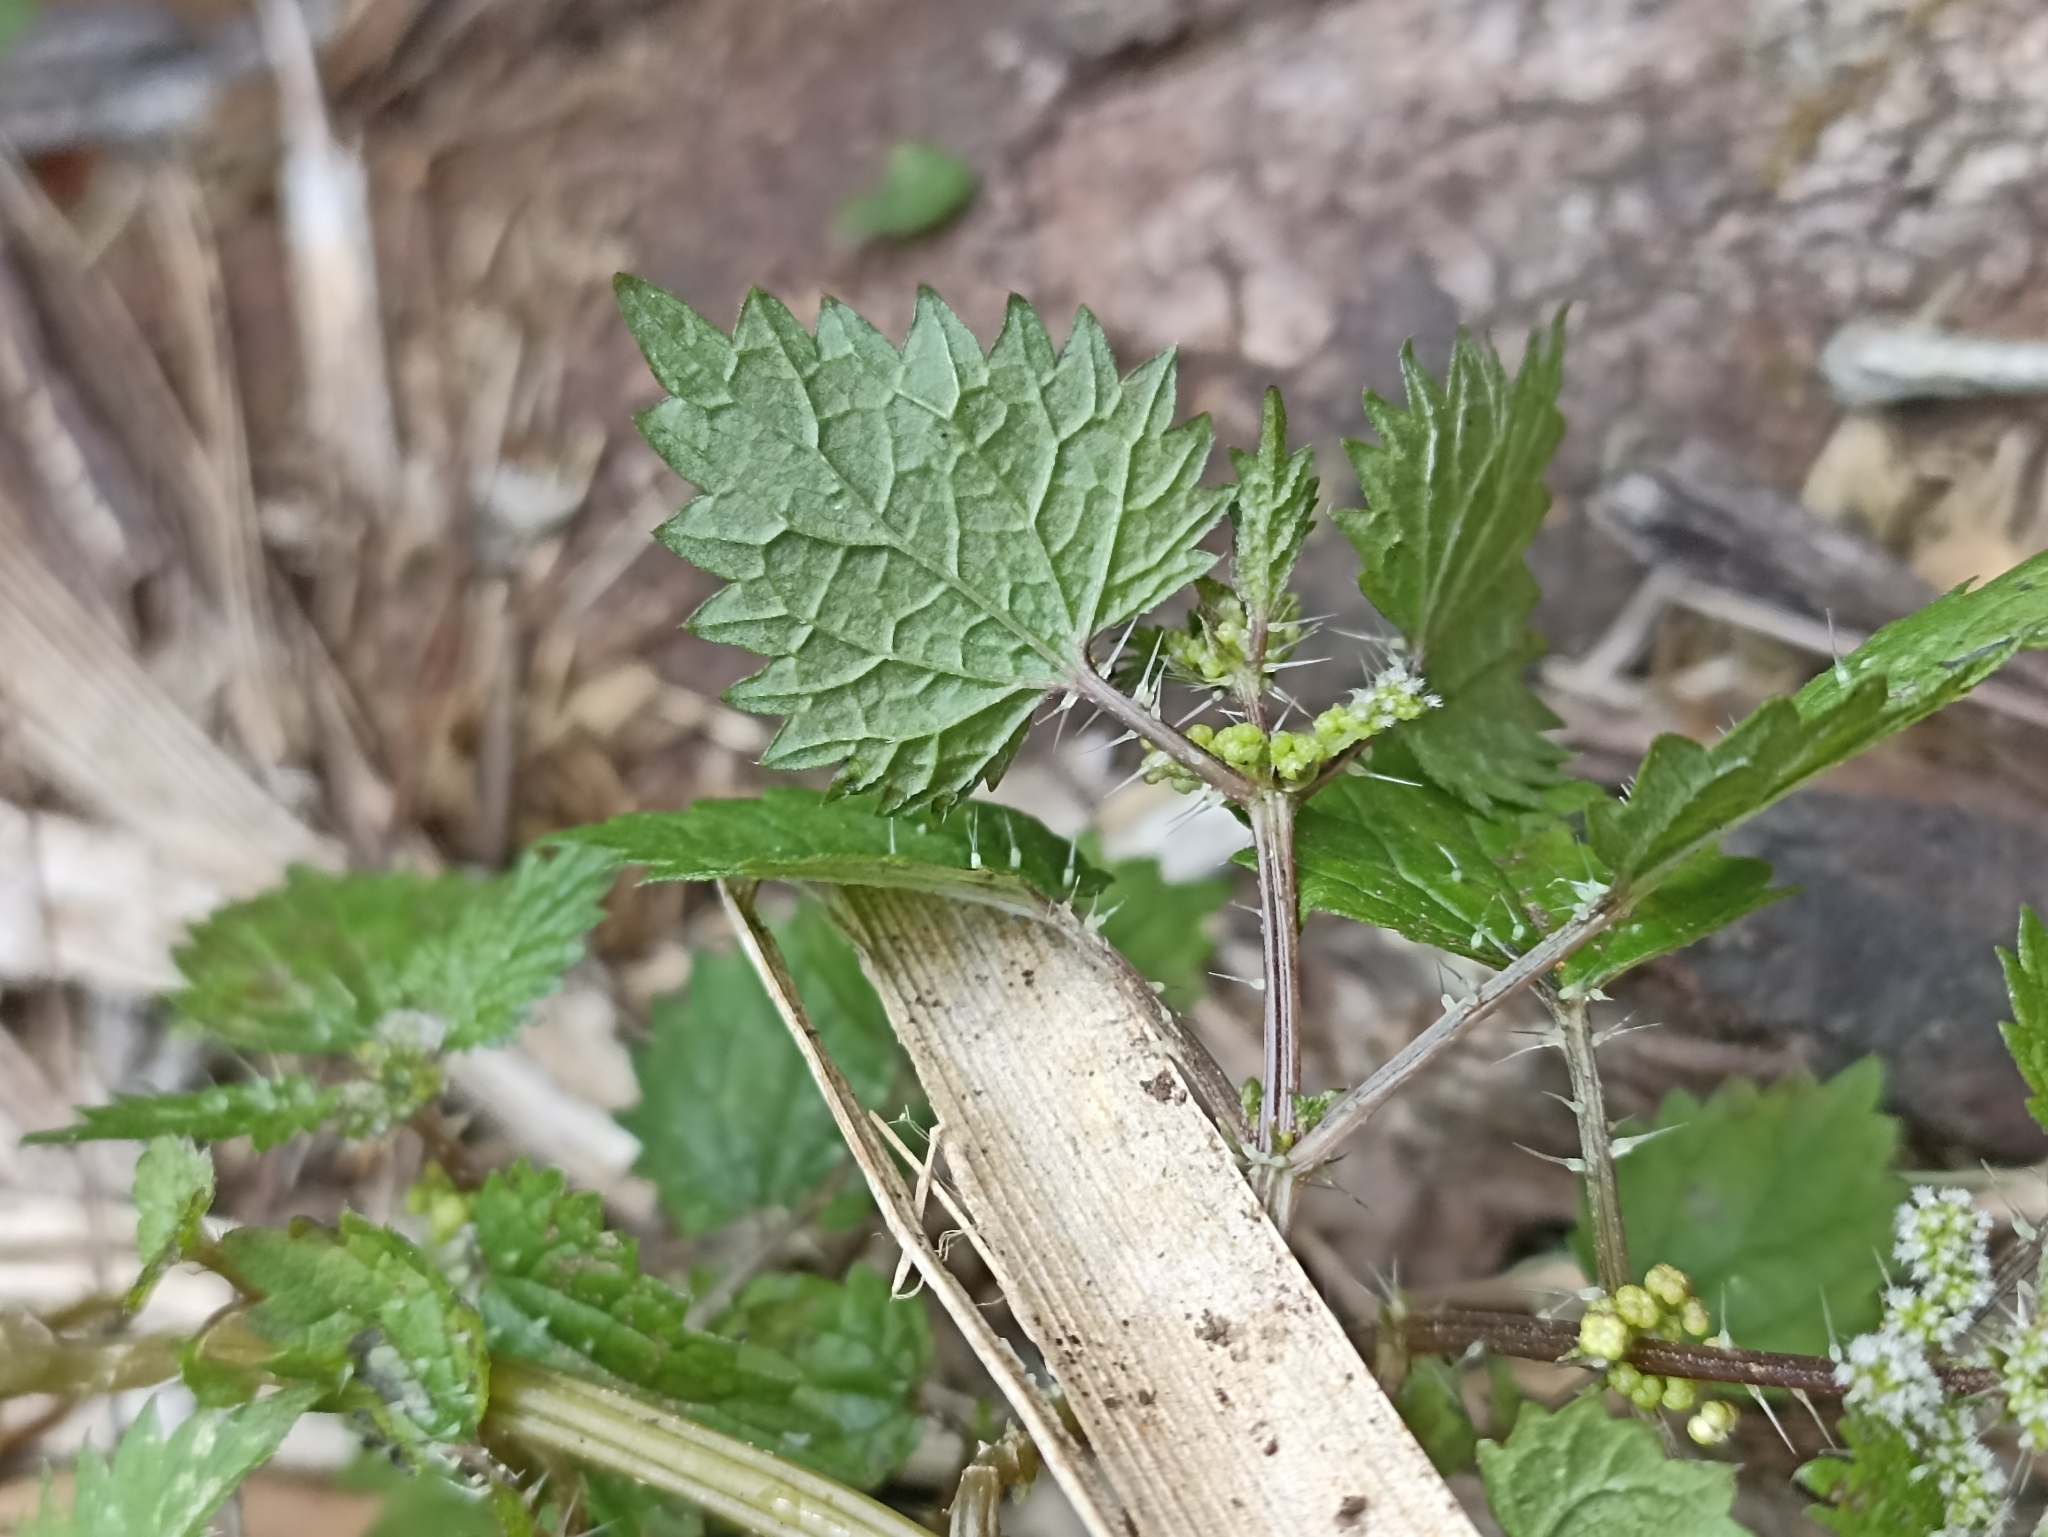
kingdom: Plantae
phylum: Tracheophyta
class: Magnoliopsida
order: Rosales
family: Urticaceae
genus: Urtica
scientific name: Urtica sykesii
